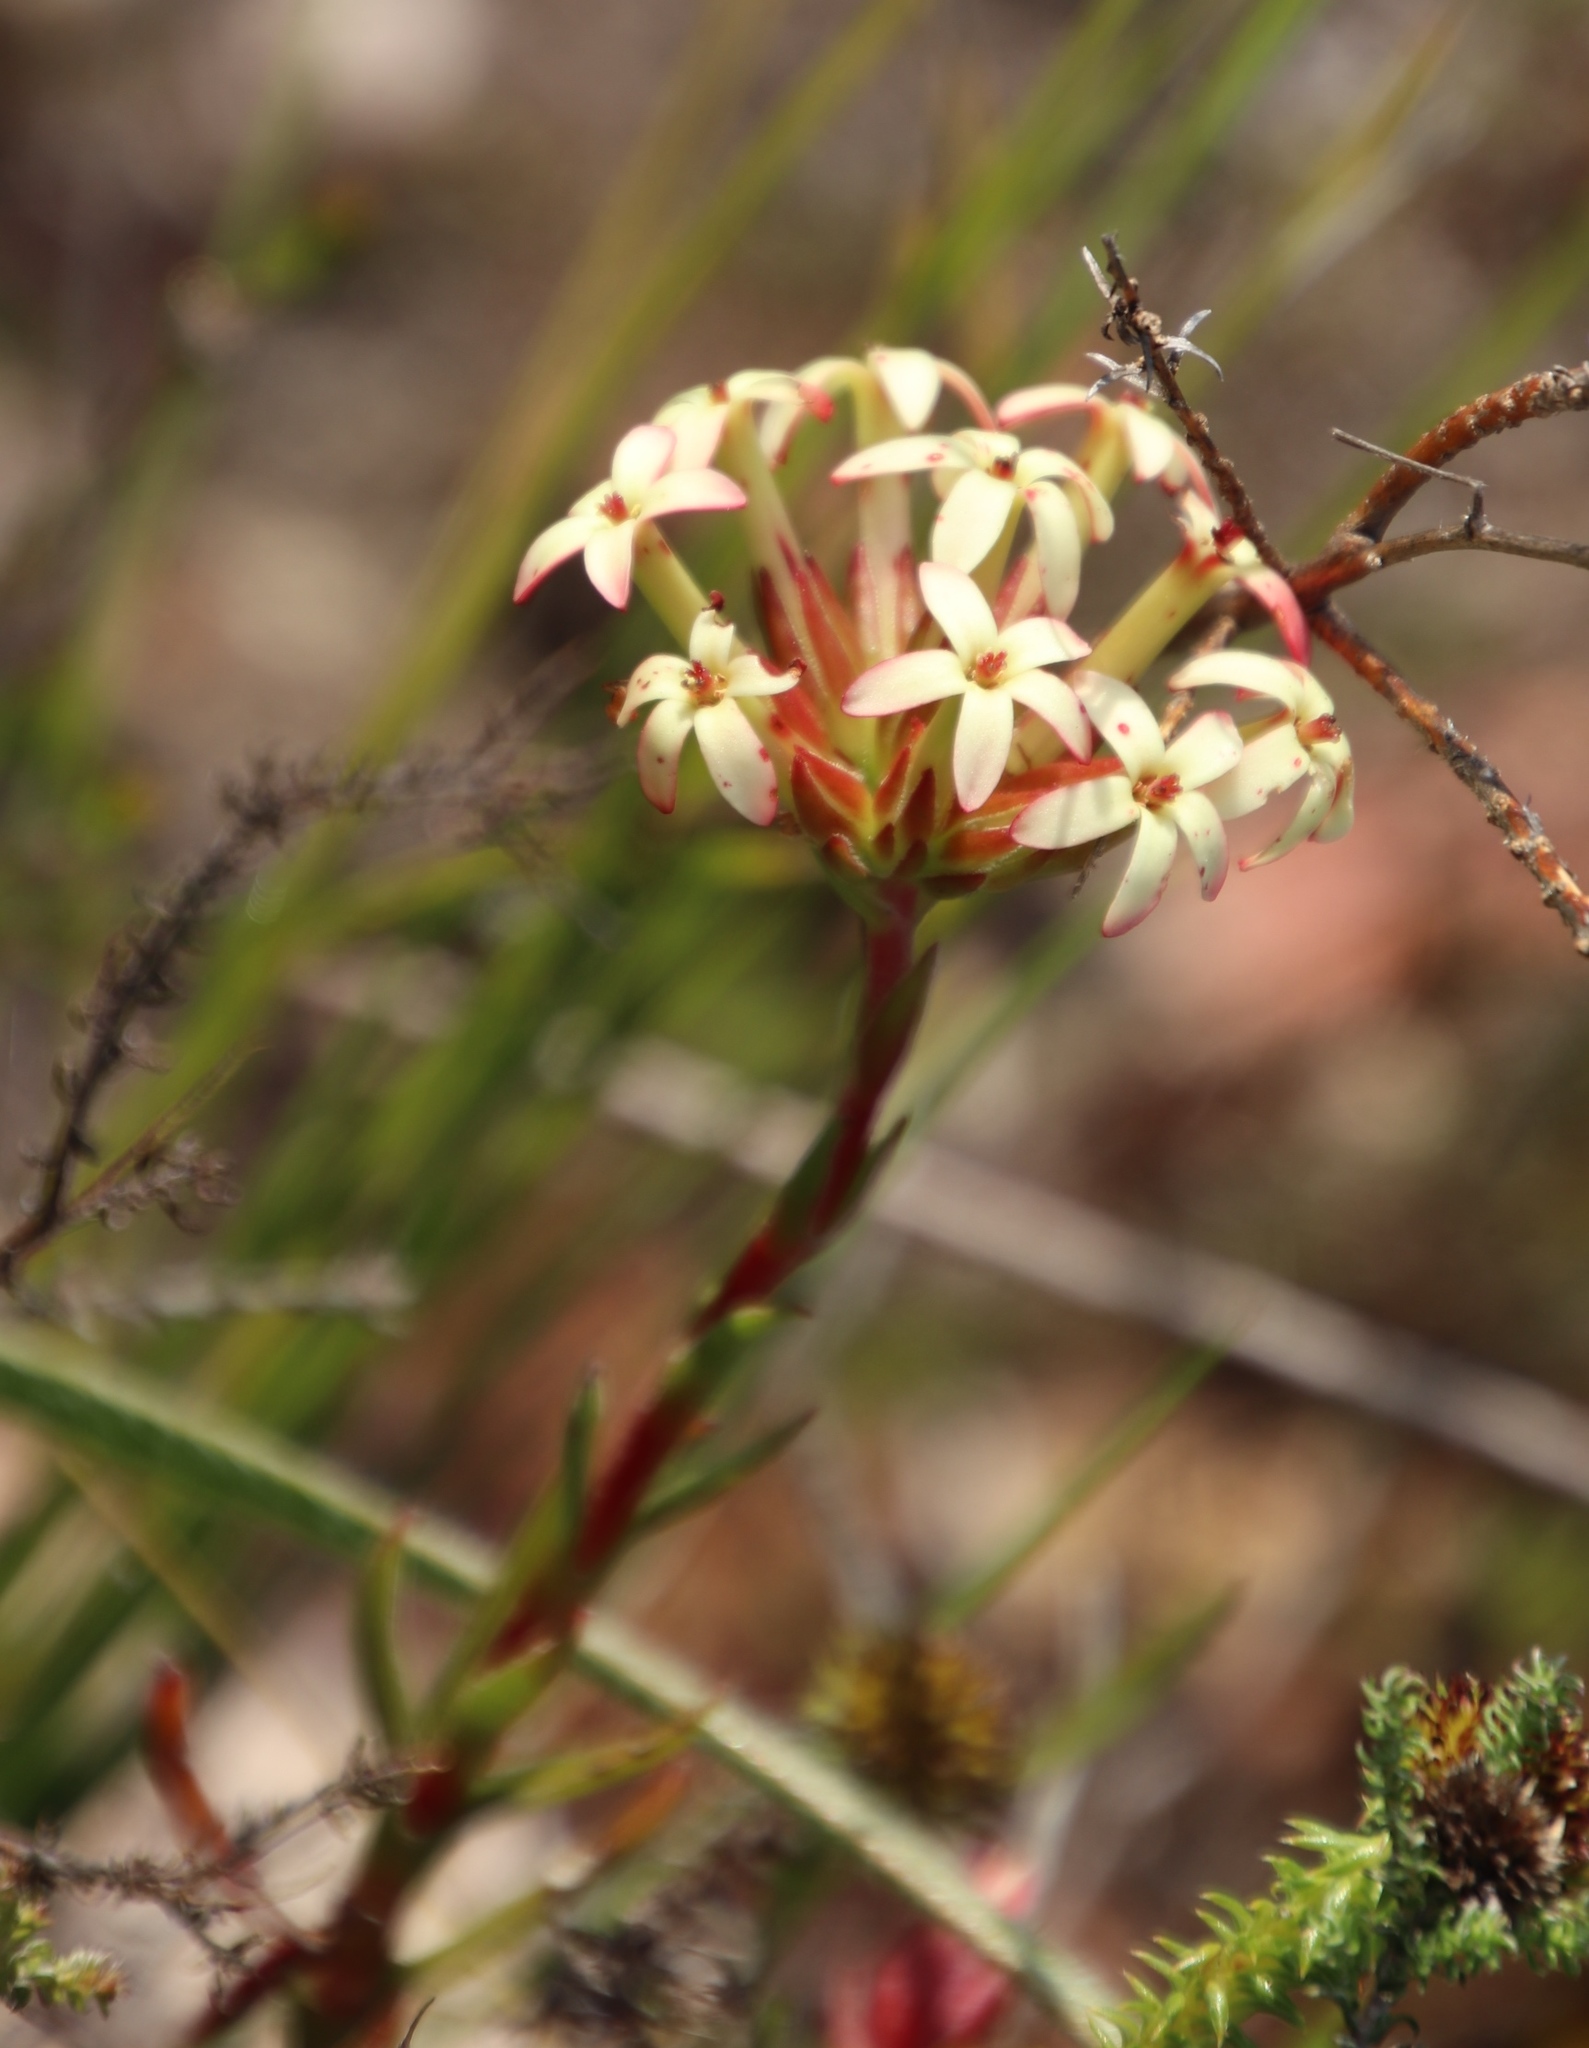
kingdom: Plantae
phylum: Tracheophyta
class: Magnoliopsida
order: Saxifragales
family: Crassulaceae
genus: Crassula
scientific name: Crassula fascicularis
